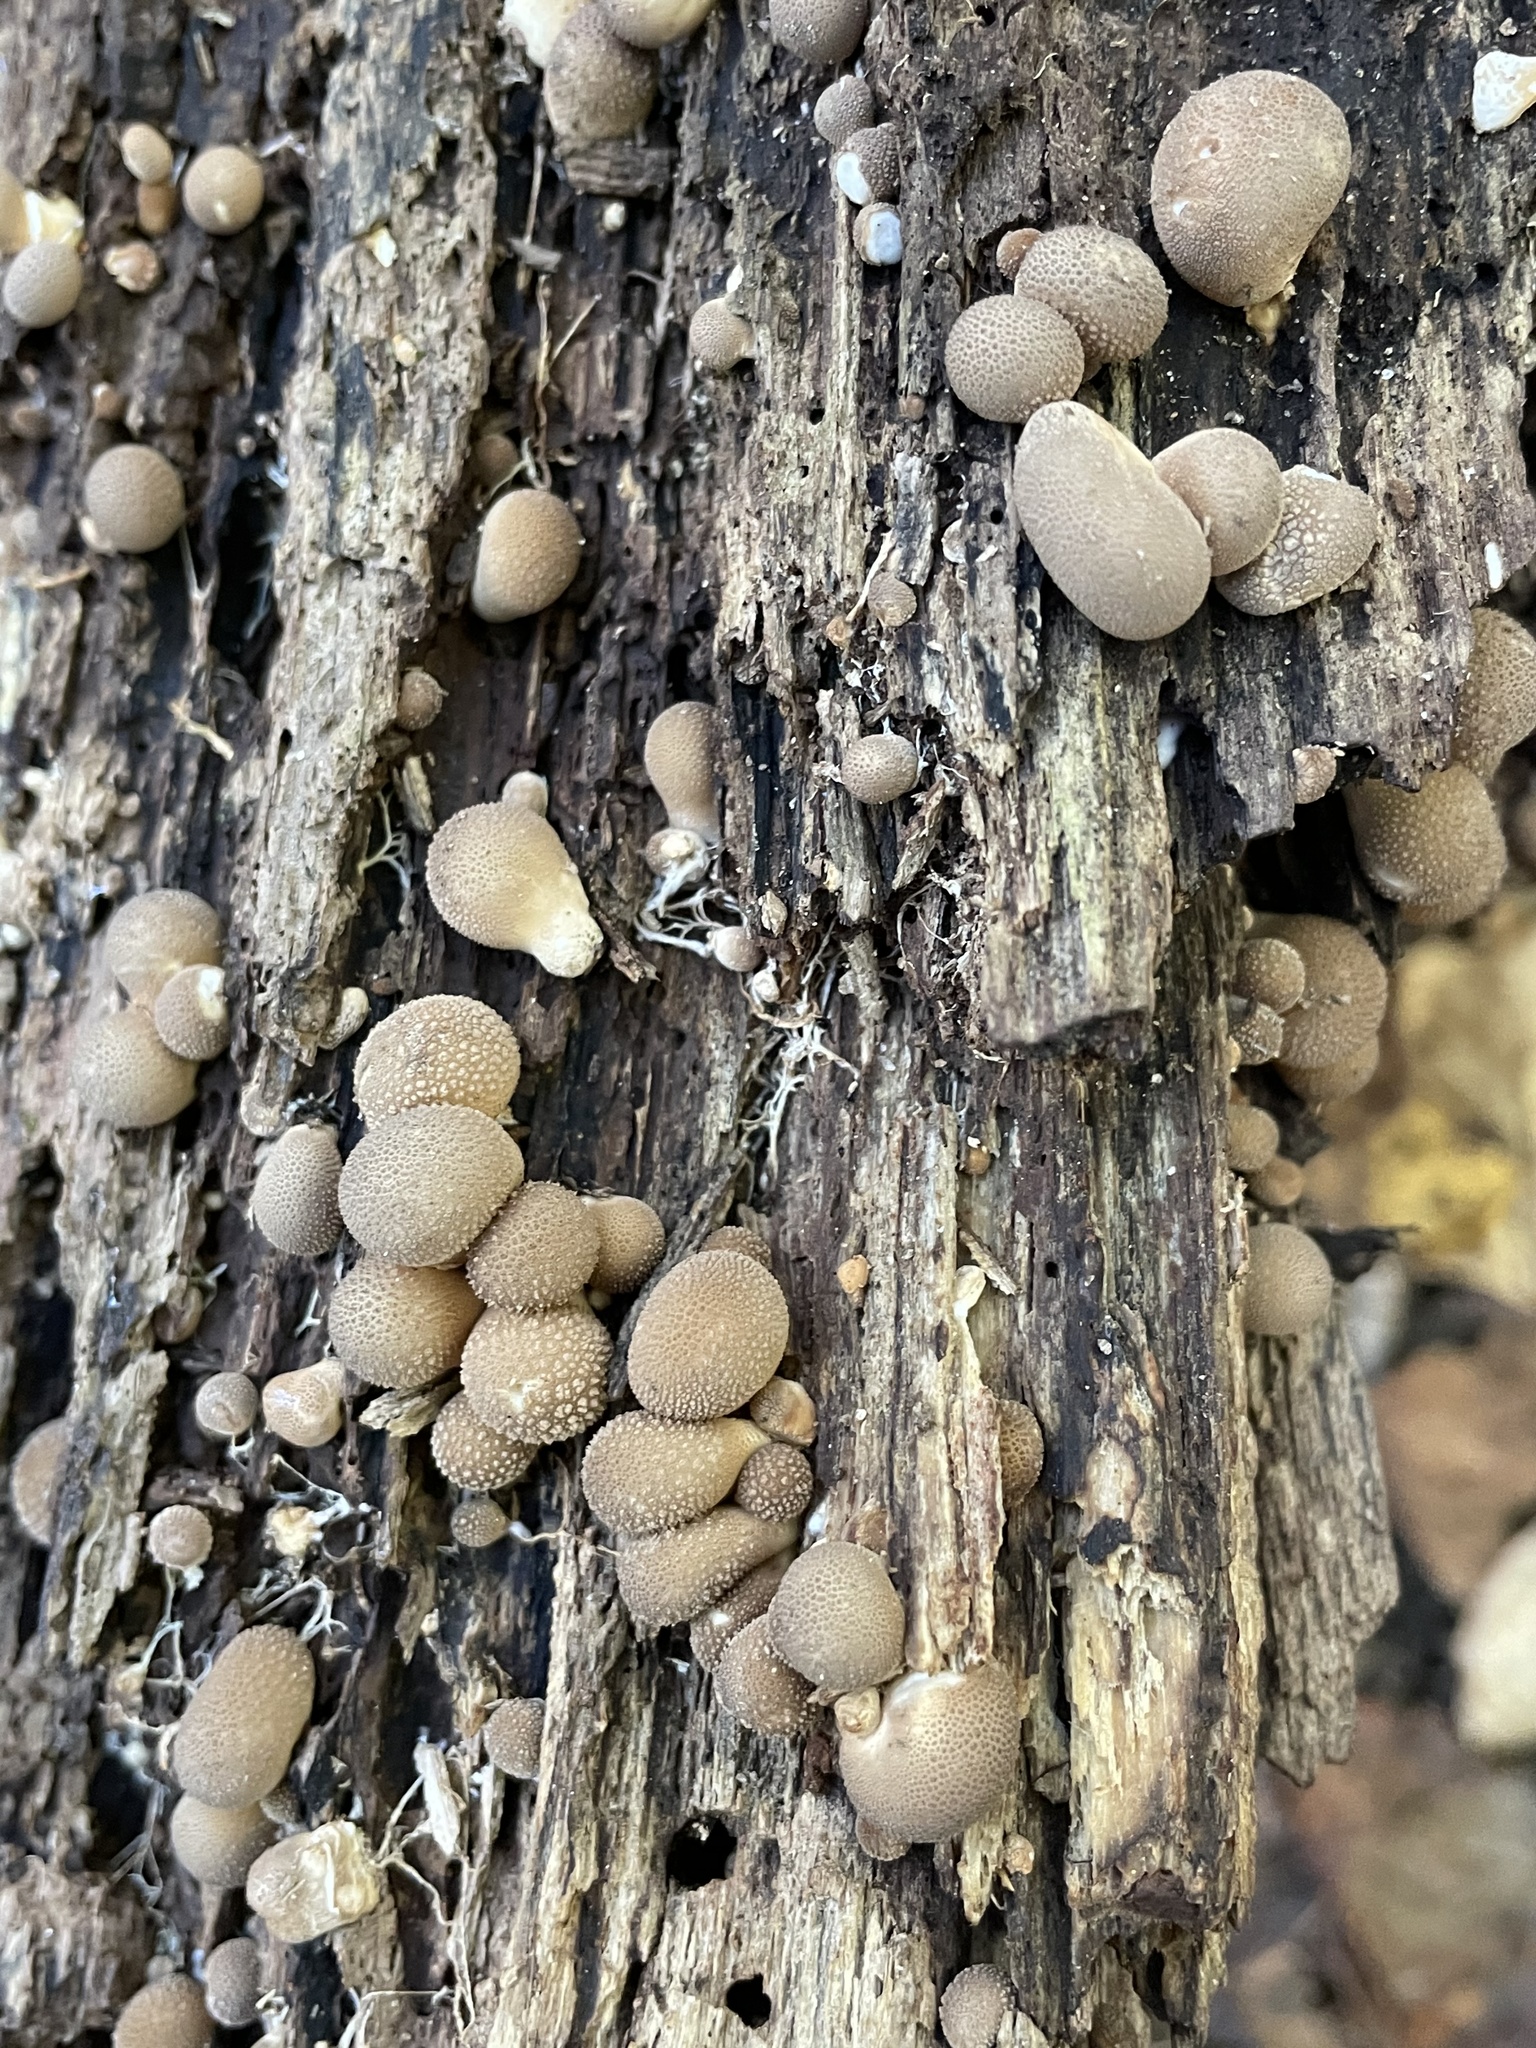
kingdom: Fungi
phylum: Basidiomycota
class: Agaricomycetes
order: Agaricales
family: Lycoperdaceae
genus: Apioperdon
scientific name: Apioperdon pyriforme
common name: Pear-shaped puffball
